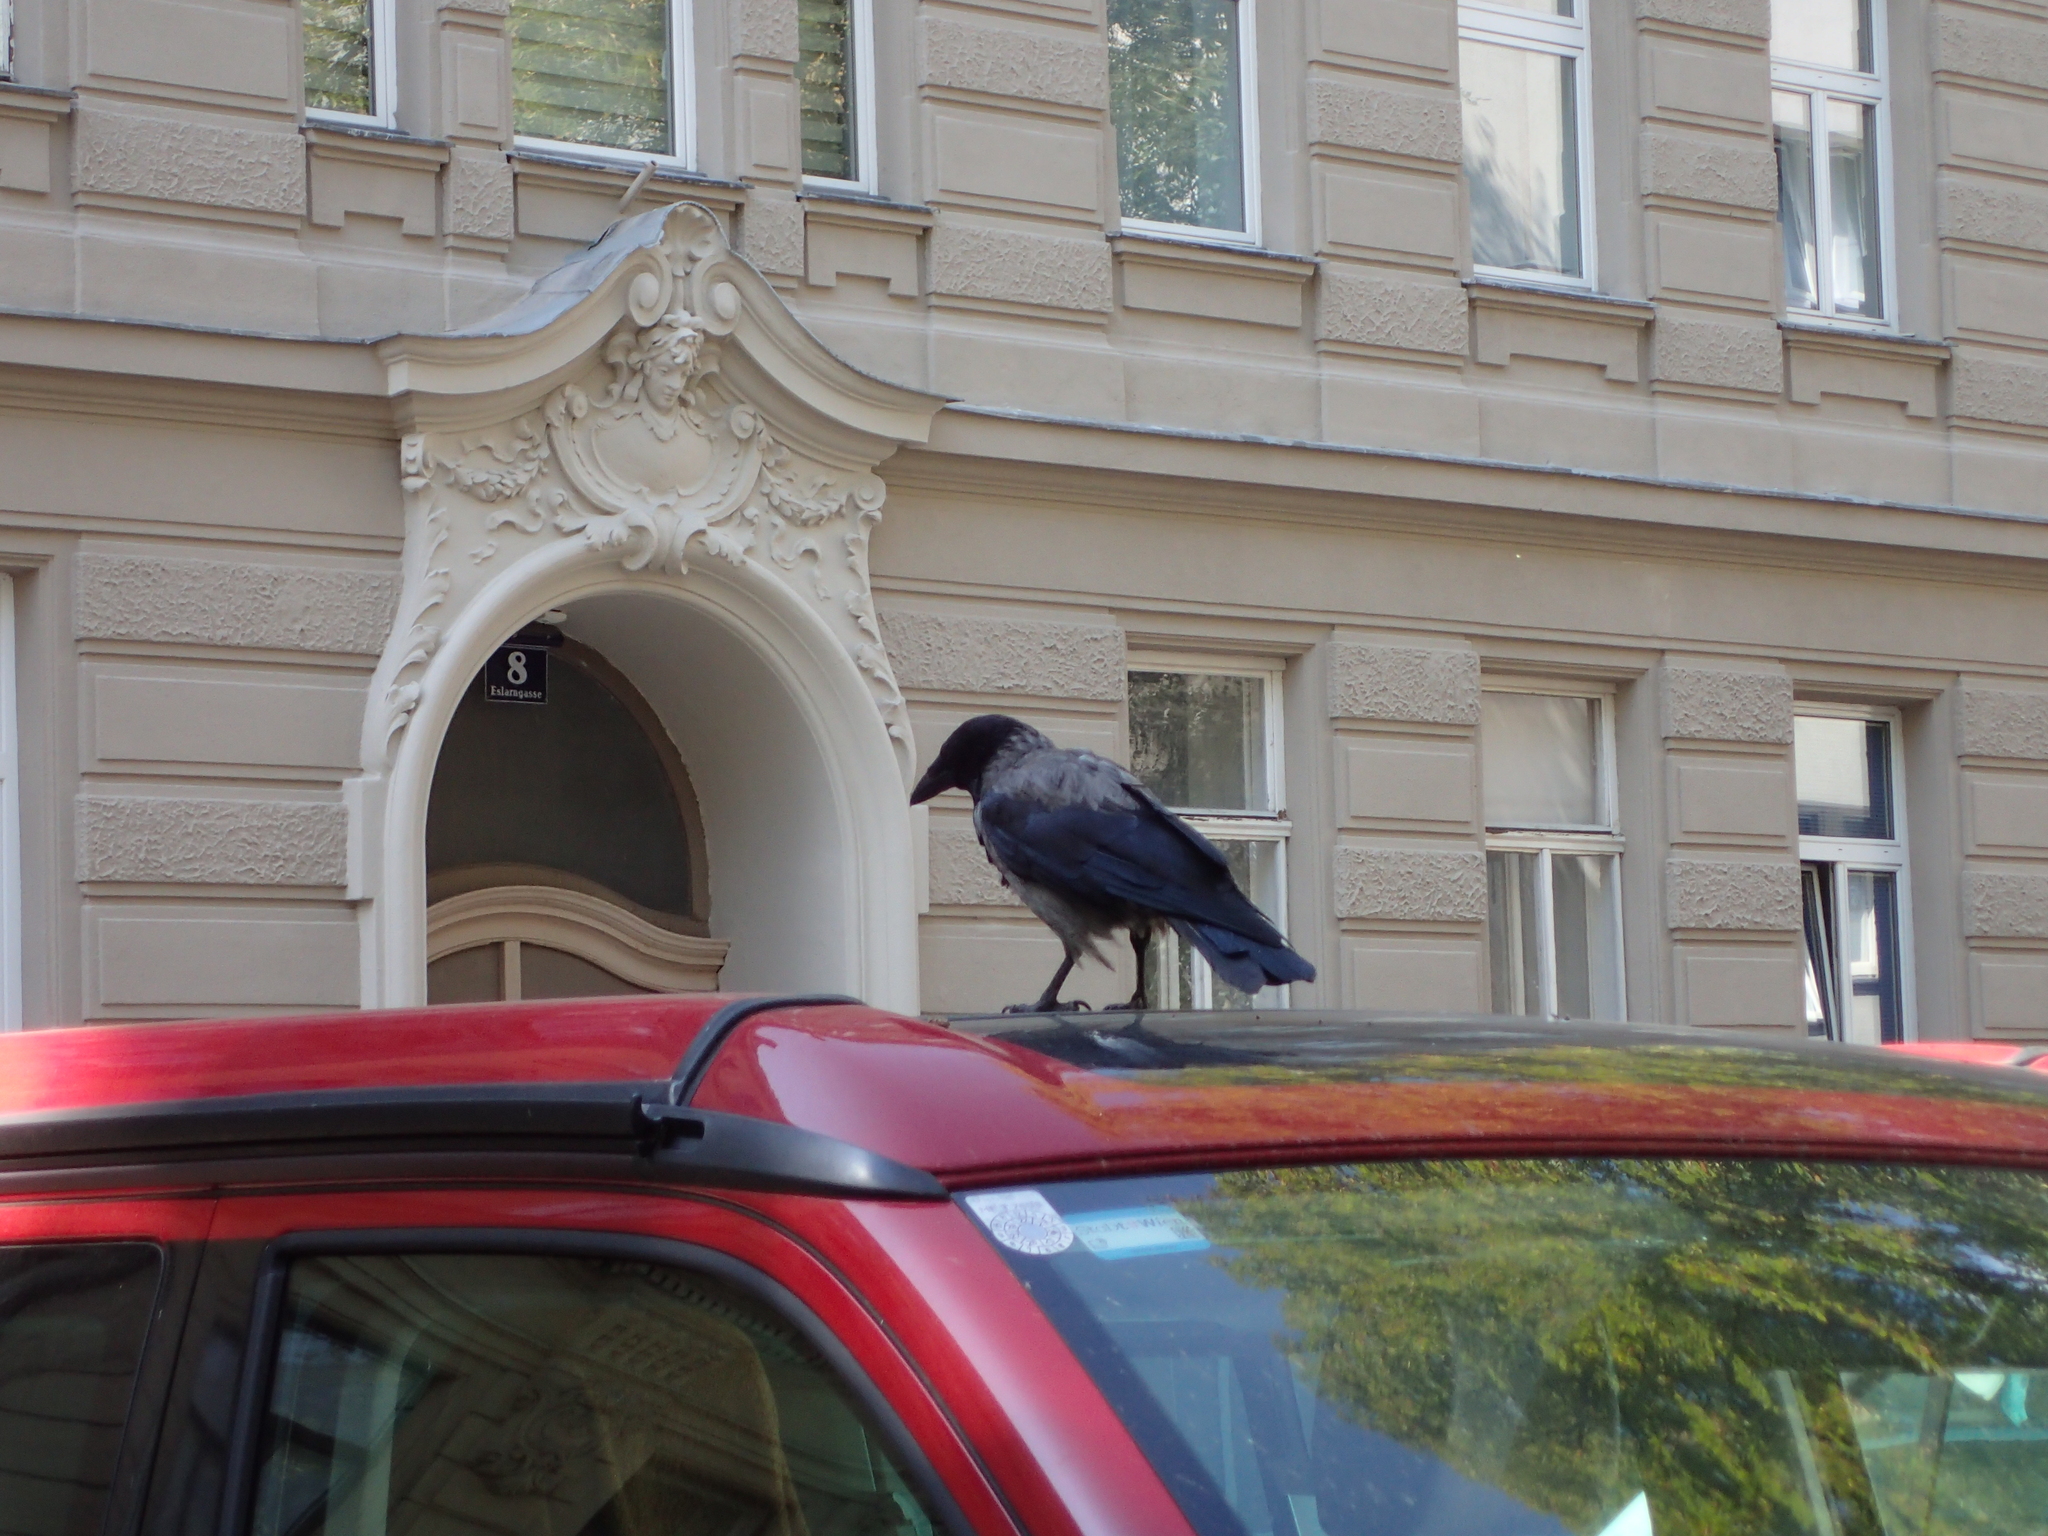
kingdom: Animalia
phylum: Chordata
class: Aves
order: Passeriformes
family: Corvidae
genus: Corvus
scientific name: Corvus cornix
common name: Hooded crow
